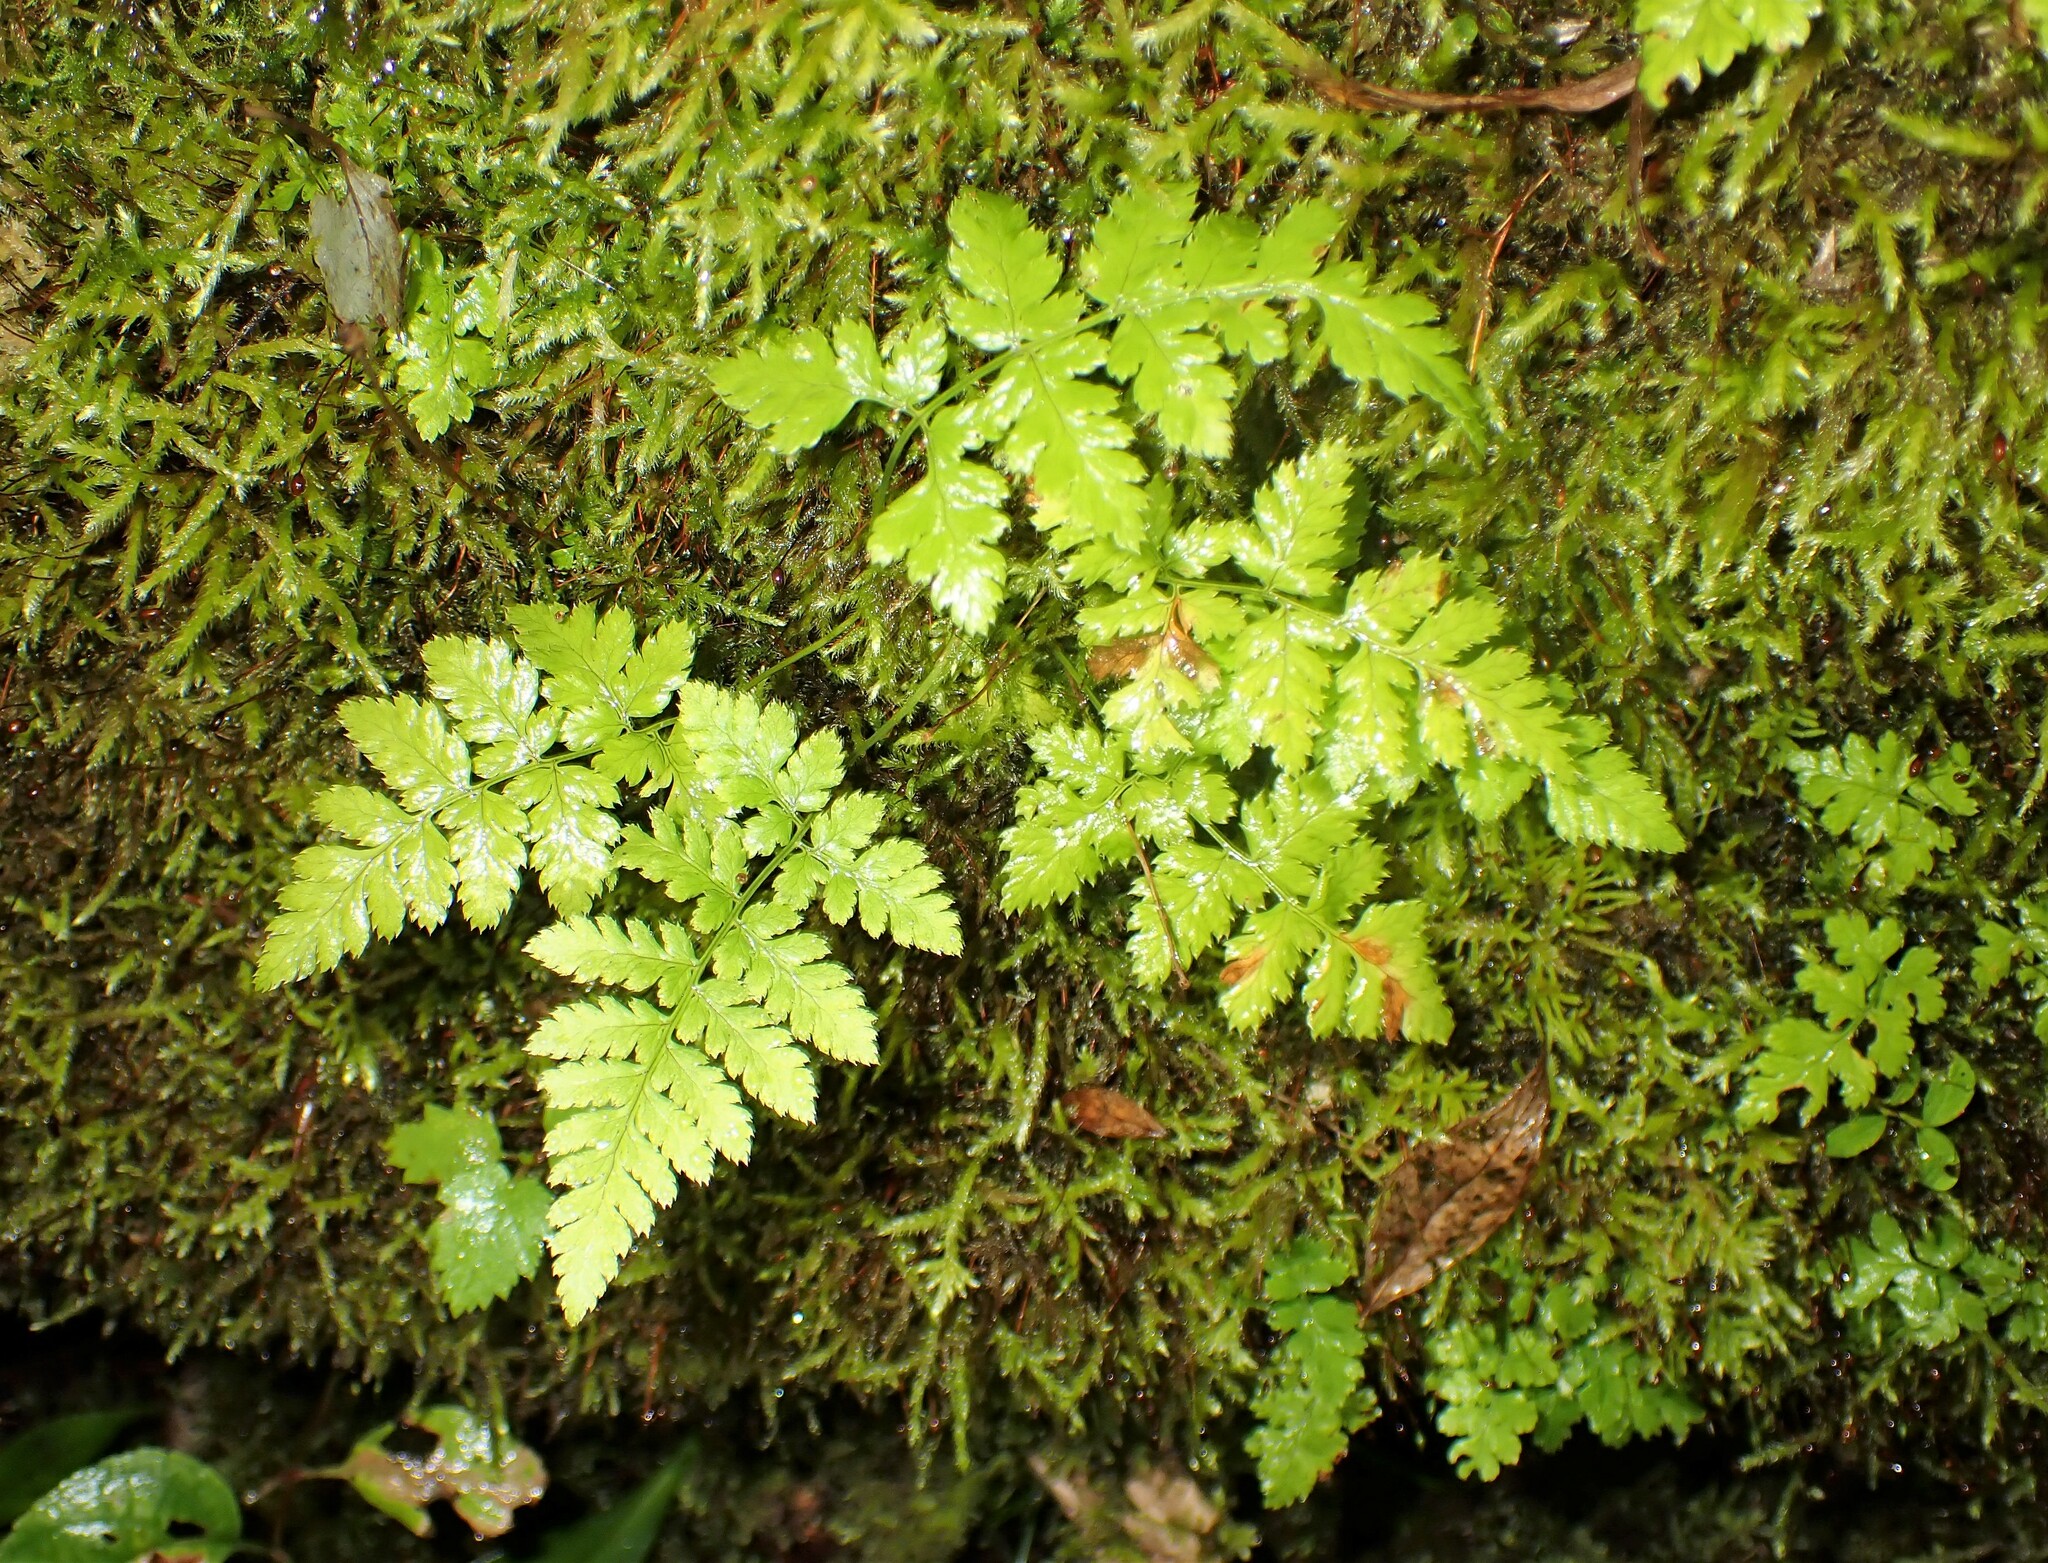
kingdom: Plantae
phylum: Tracheophyta
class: Polypodiopsida
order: Polypodiales
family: Dryopteridaceae
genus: Dryopteris
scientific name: Dryopteris
